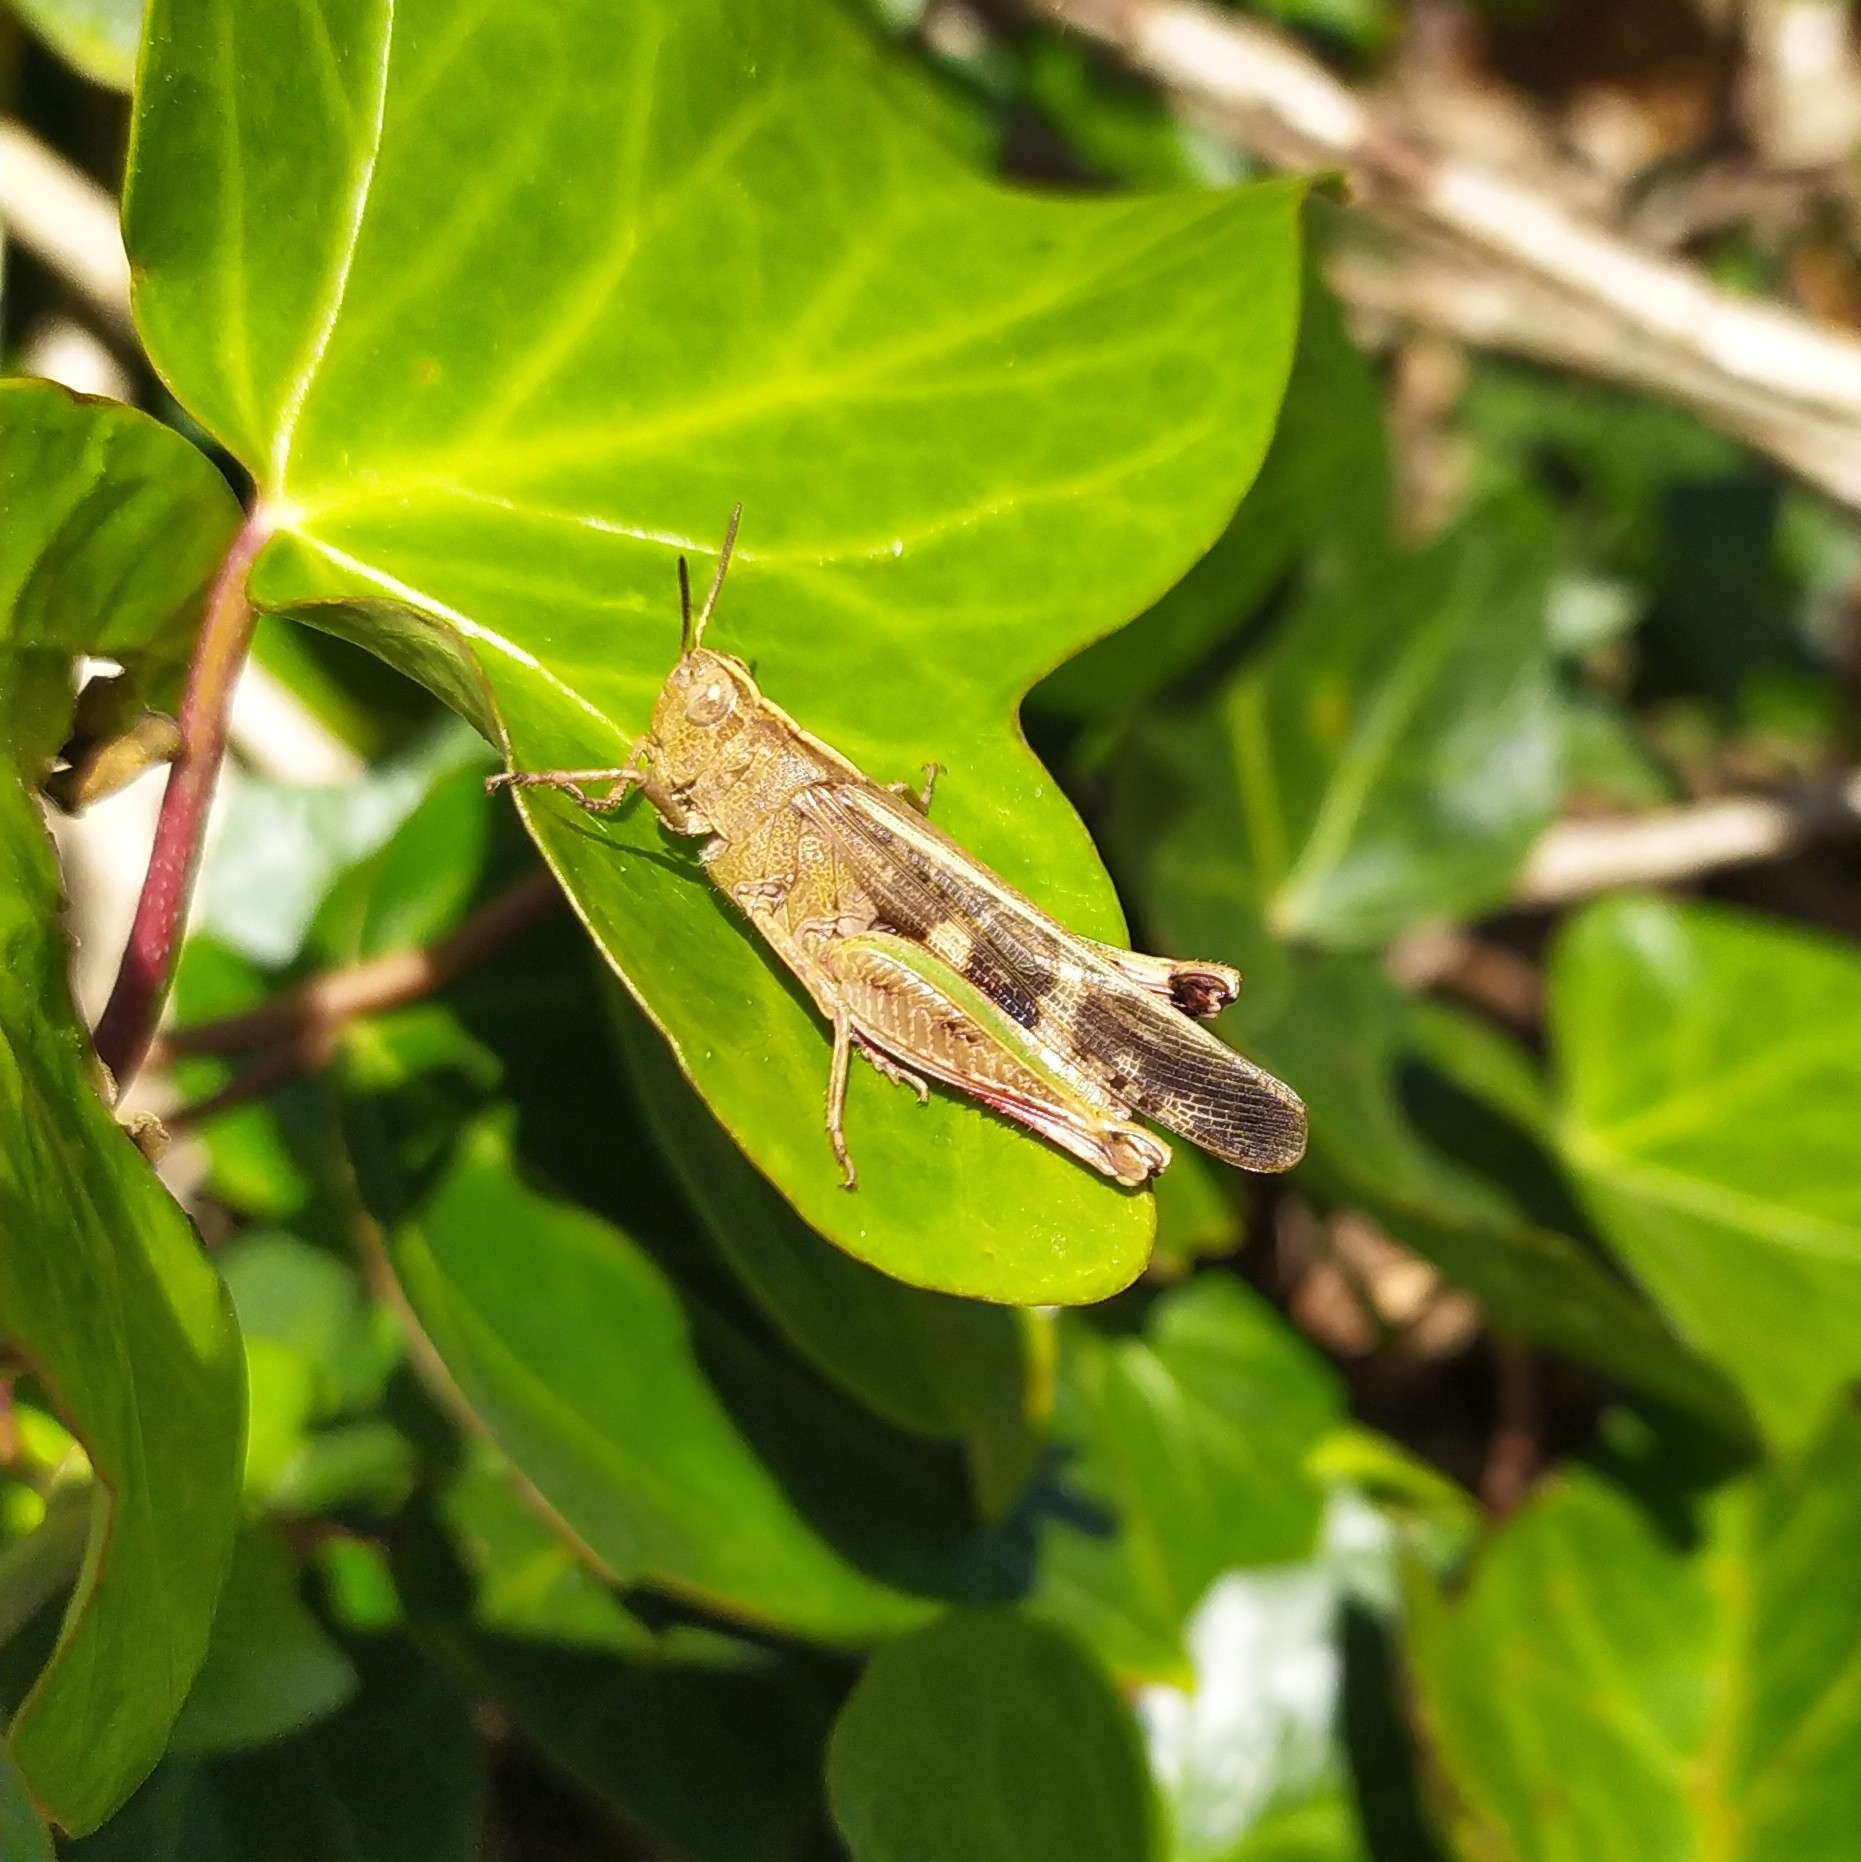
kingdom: Animalia
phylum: Arthropoda
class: Insecta
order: Orthoptera
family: Acrididae
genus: Aiolopus
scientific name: Aiolopus strepens
